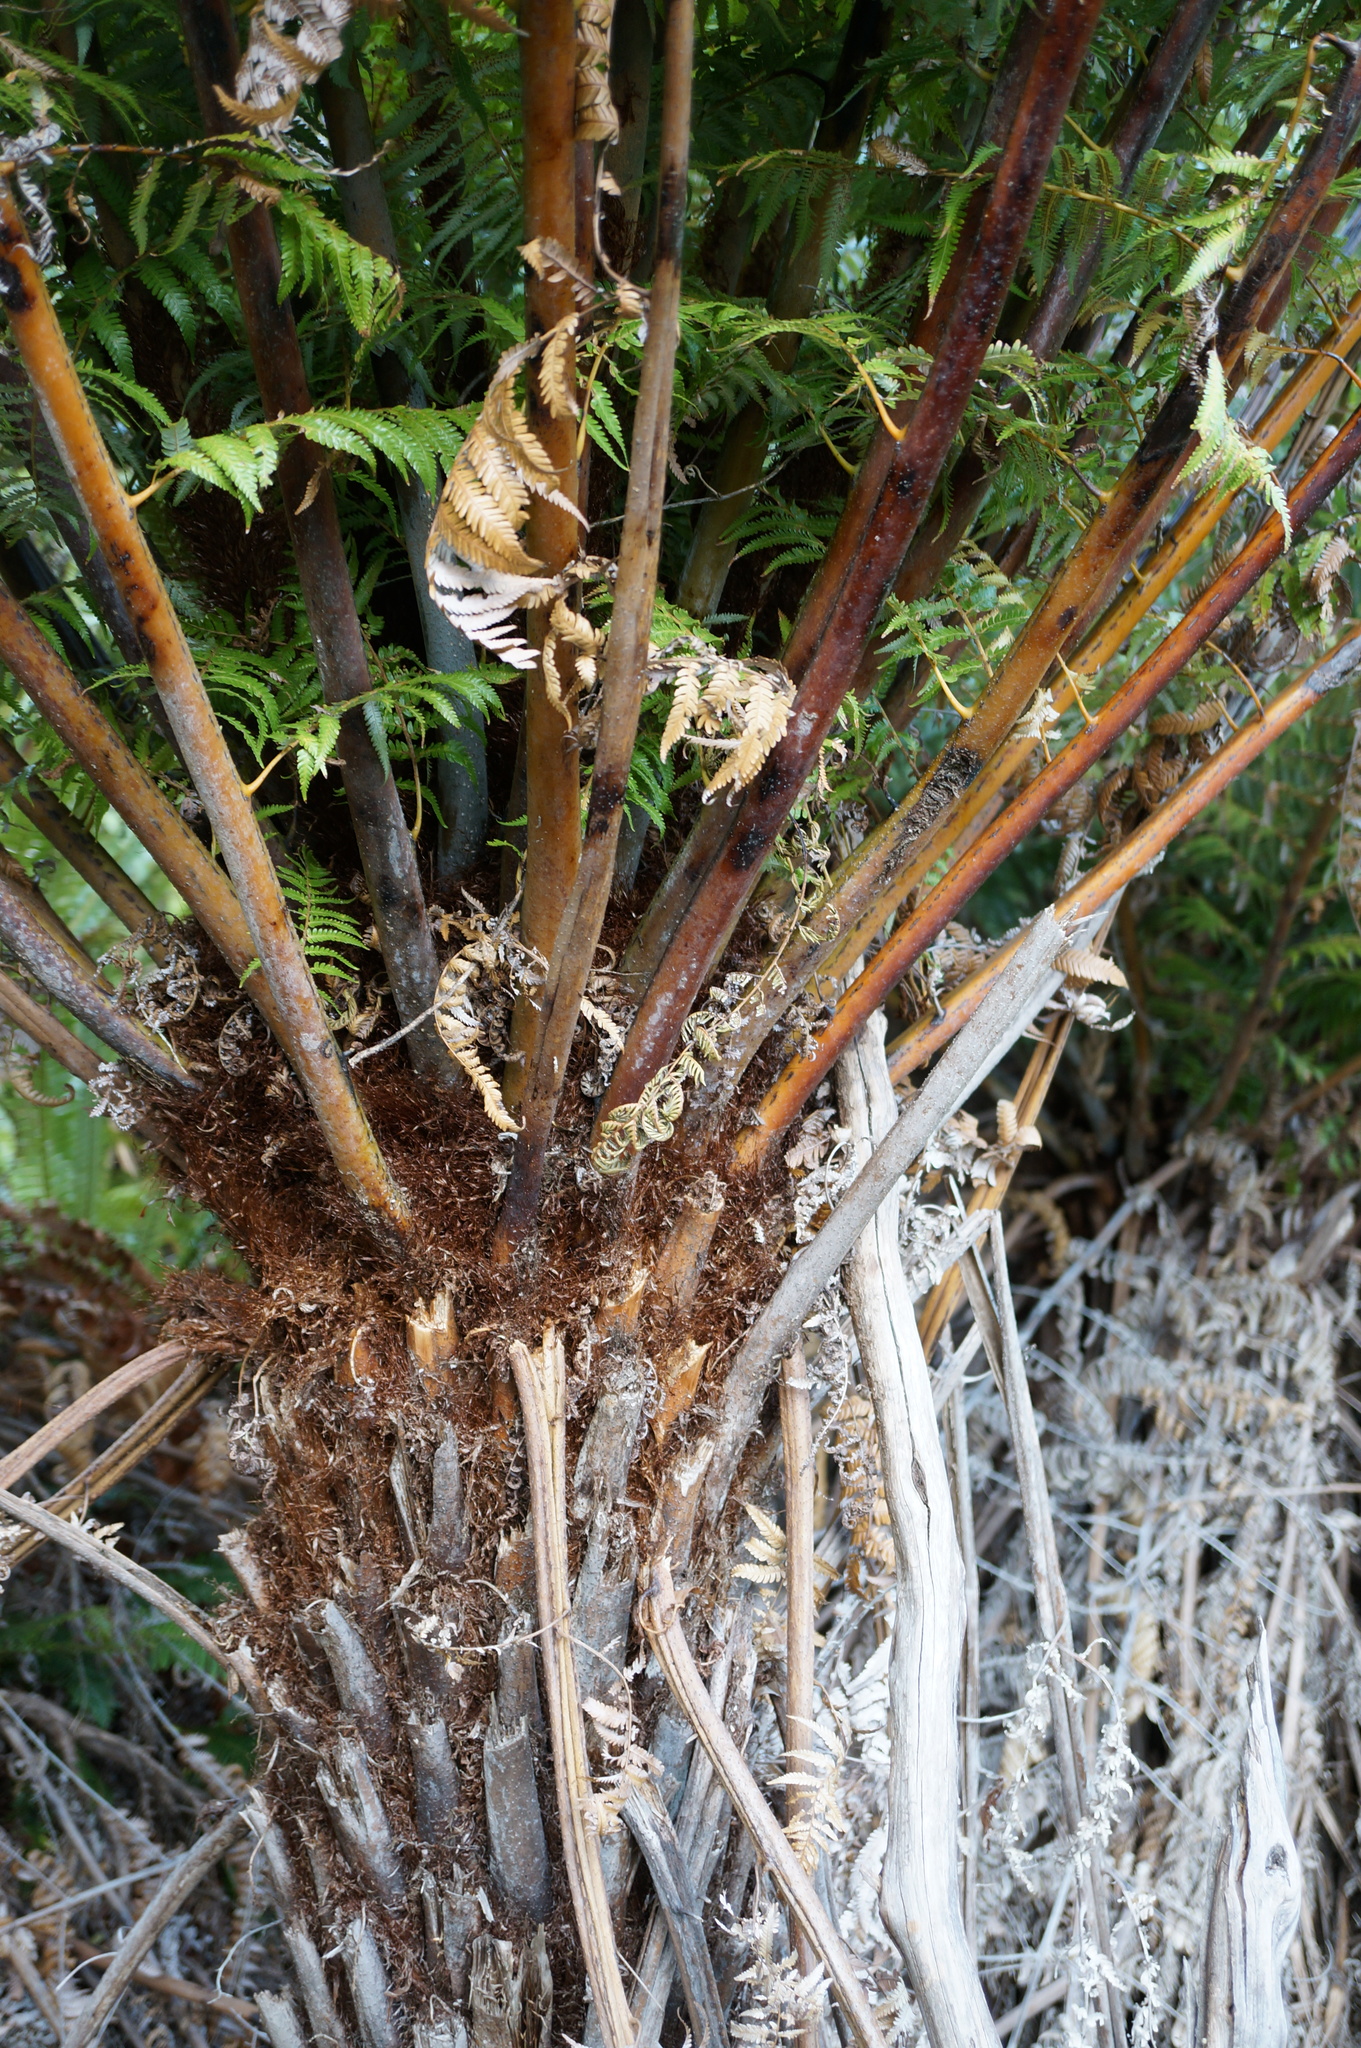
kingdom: Plantae
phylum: Tracheophyta
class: Polypodiopsida
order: Cyatheales
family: Cyatheaceae
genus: Alsophila
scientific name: Alsophila dealbata
